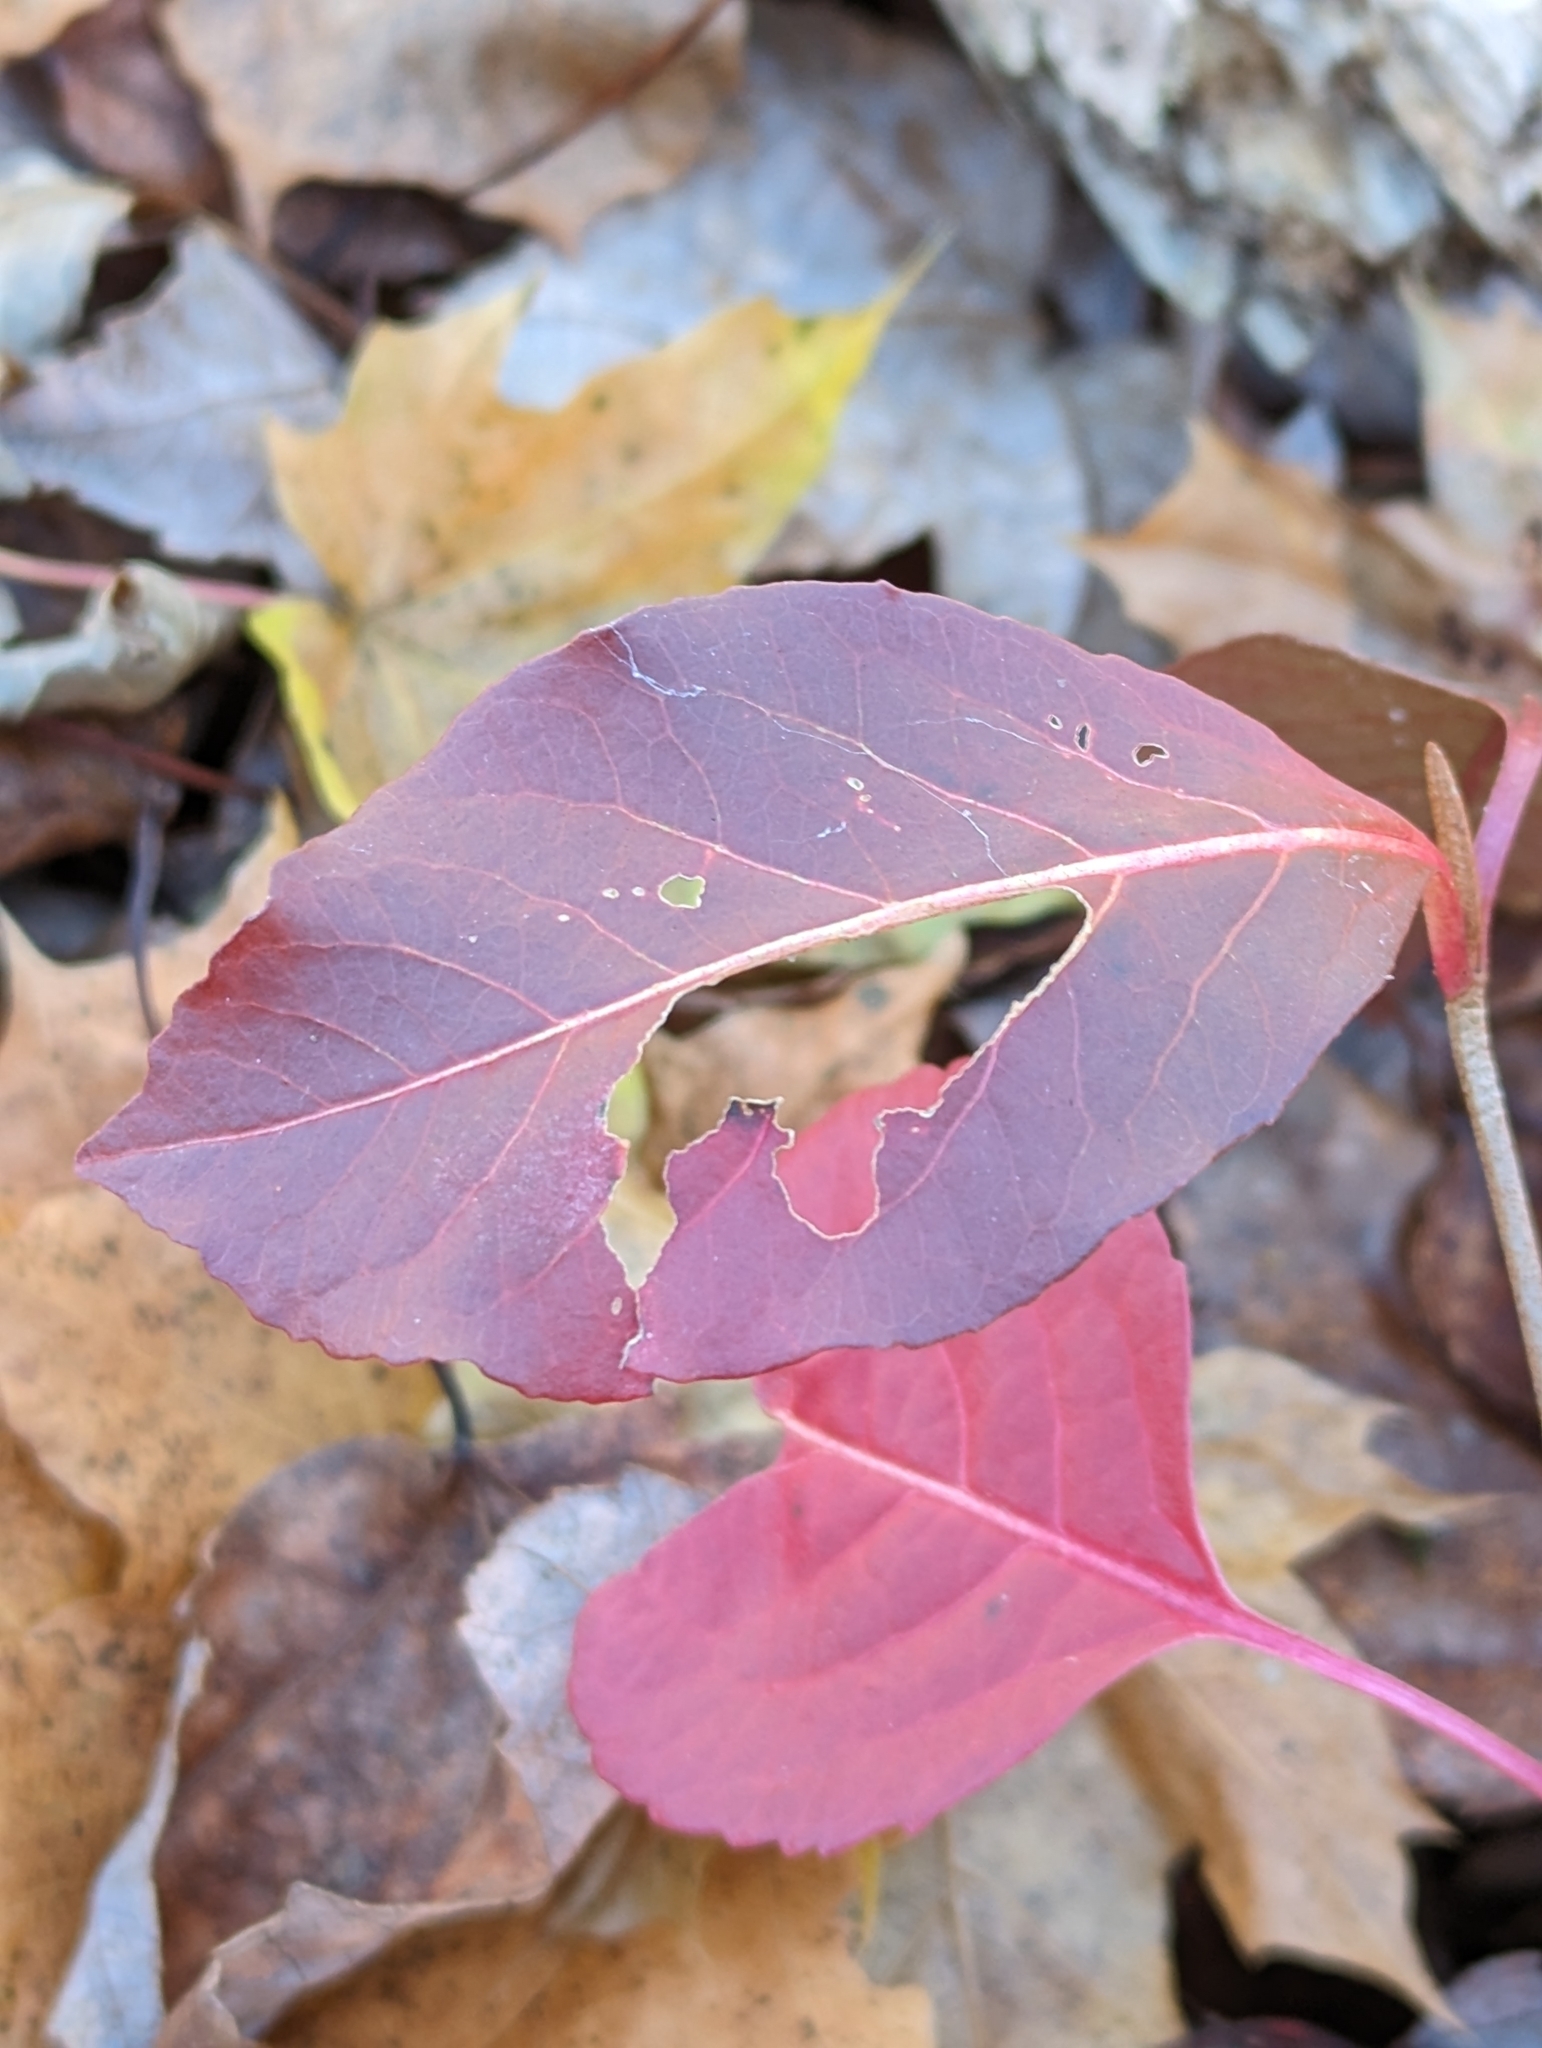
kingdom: Plantae
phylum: Tracheophyta
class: Magnoliopsida
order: Dipsacales
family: Viburnaceae
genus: Viburnum
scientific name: Viburnum cassinoides
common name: Swamp haw
